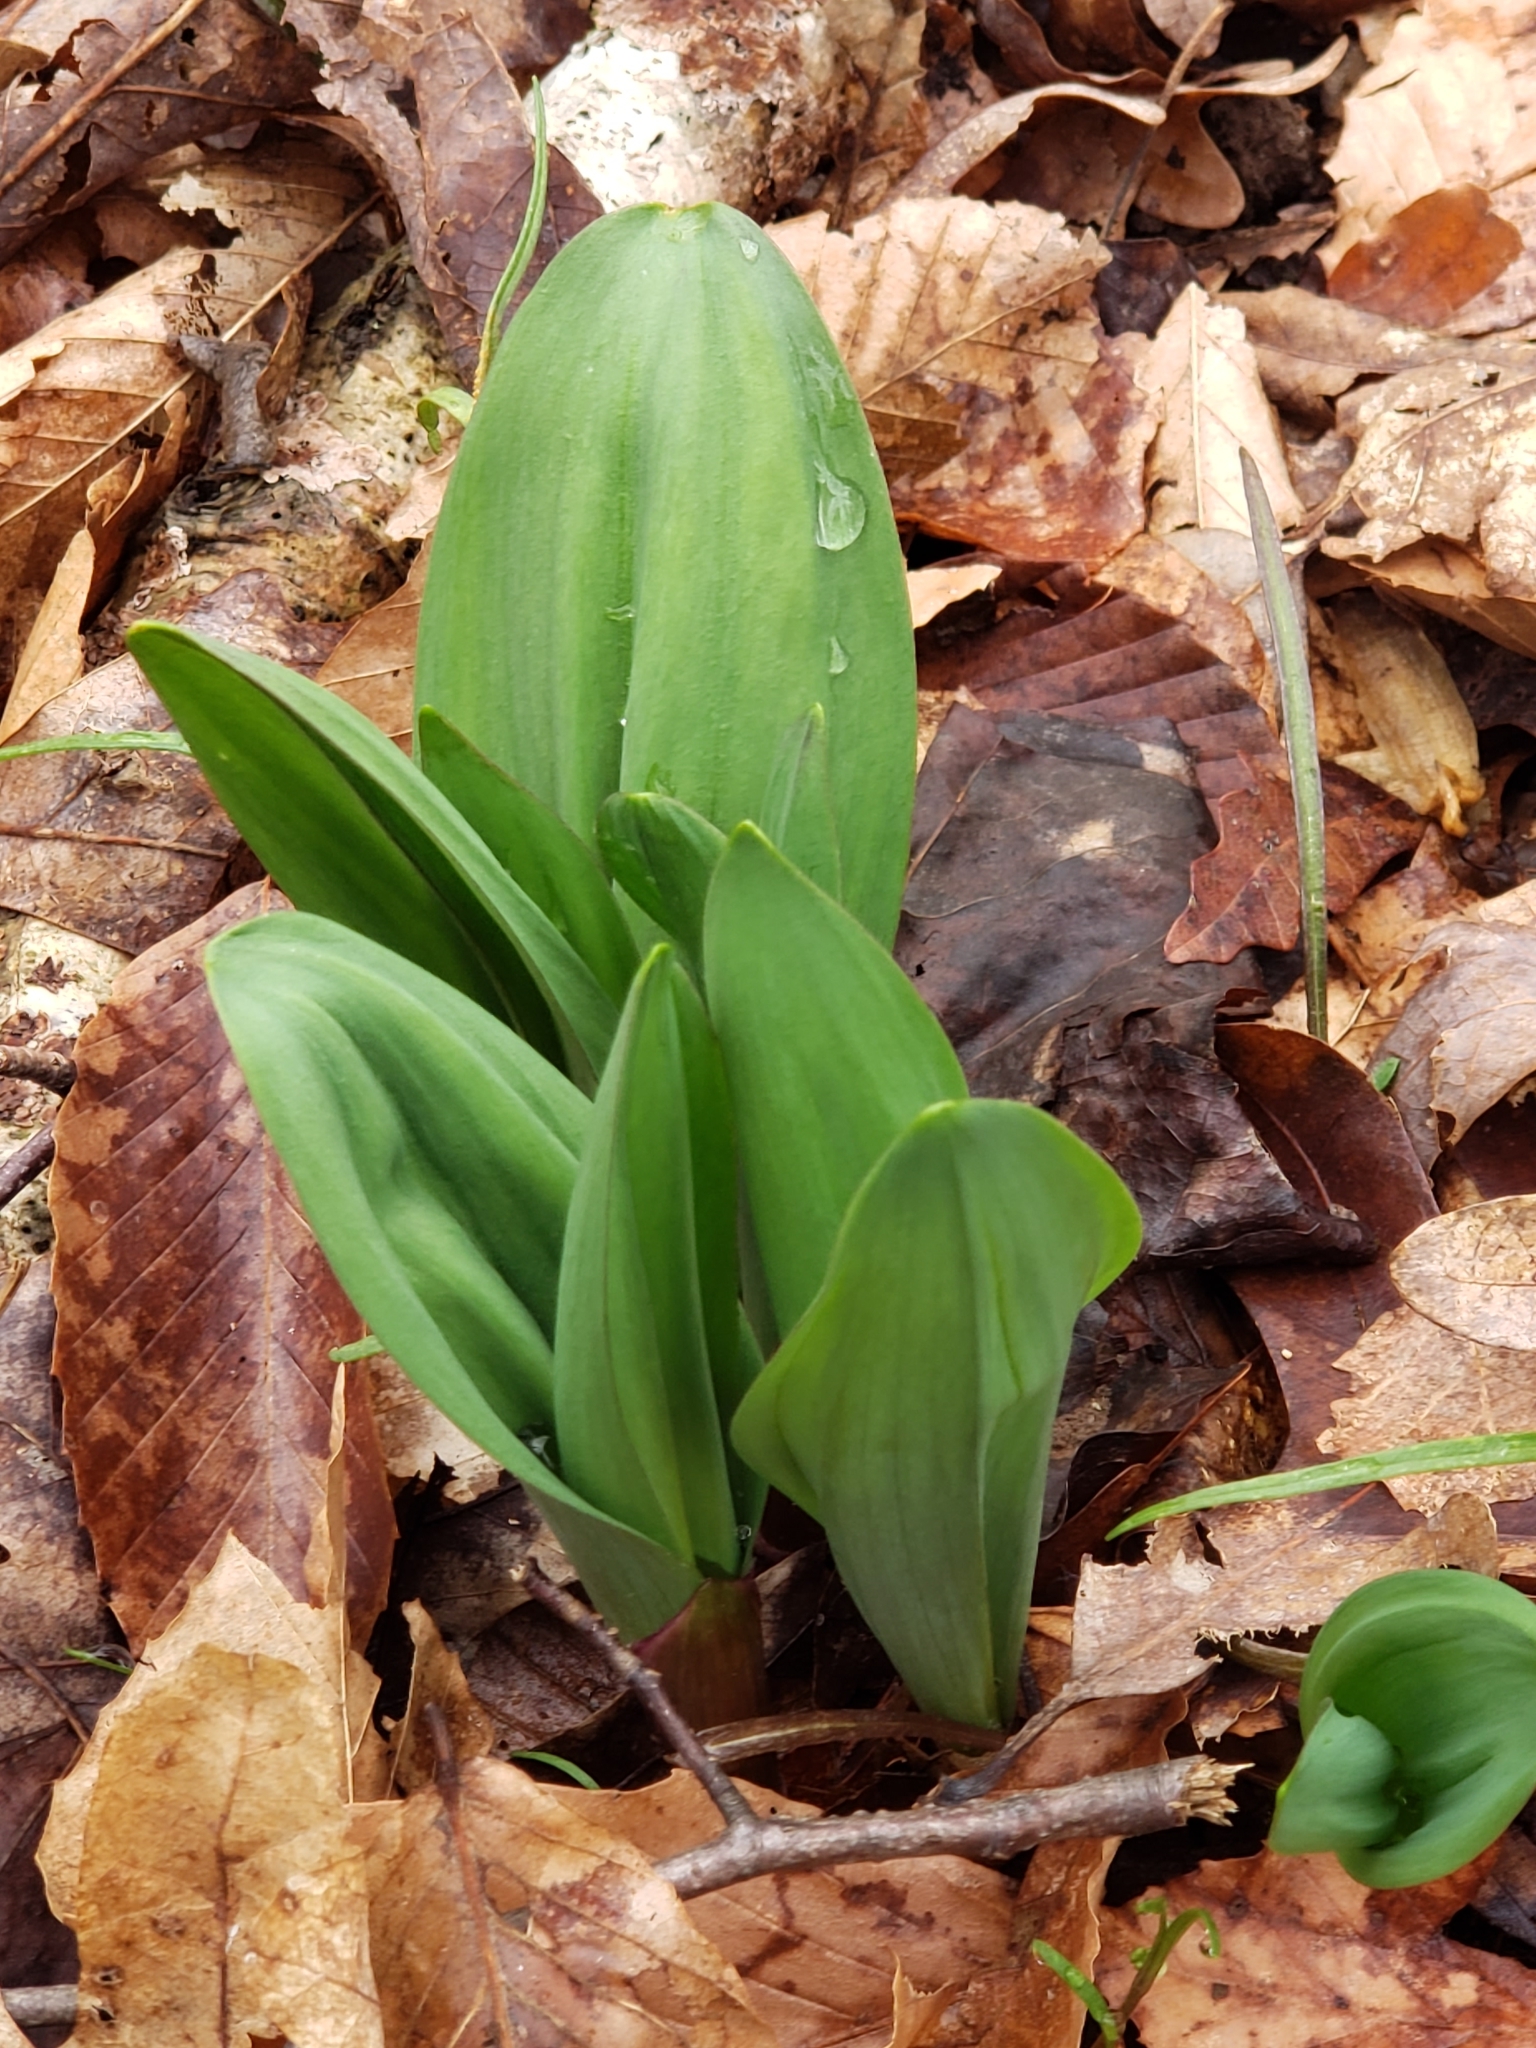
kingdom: Plantae
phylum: Tracheophyta
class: Liliopsida
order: Asparagales
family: Amaryllidaceae
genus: Allium
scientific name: Allium tricoccum
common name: Ramp
